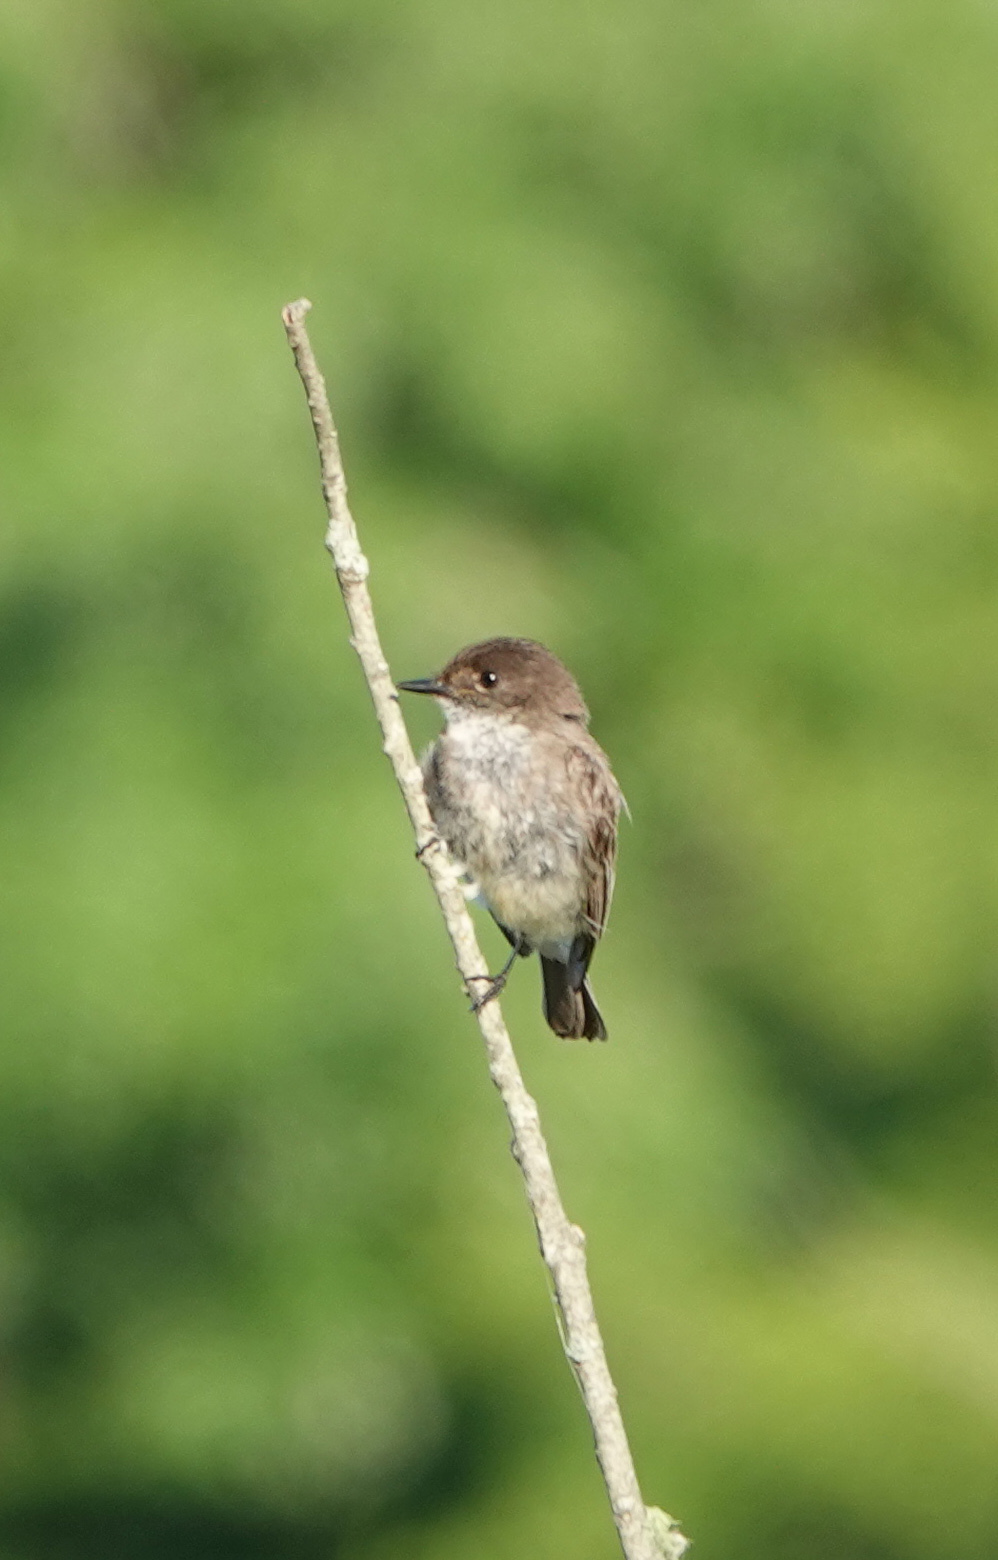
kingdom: Animalia
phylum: Chordata
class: Aves
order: Passeriformes
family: Tyrannidae
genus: Sayornis
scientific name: Sayornis phoebe
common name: Eastern phoebe
